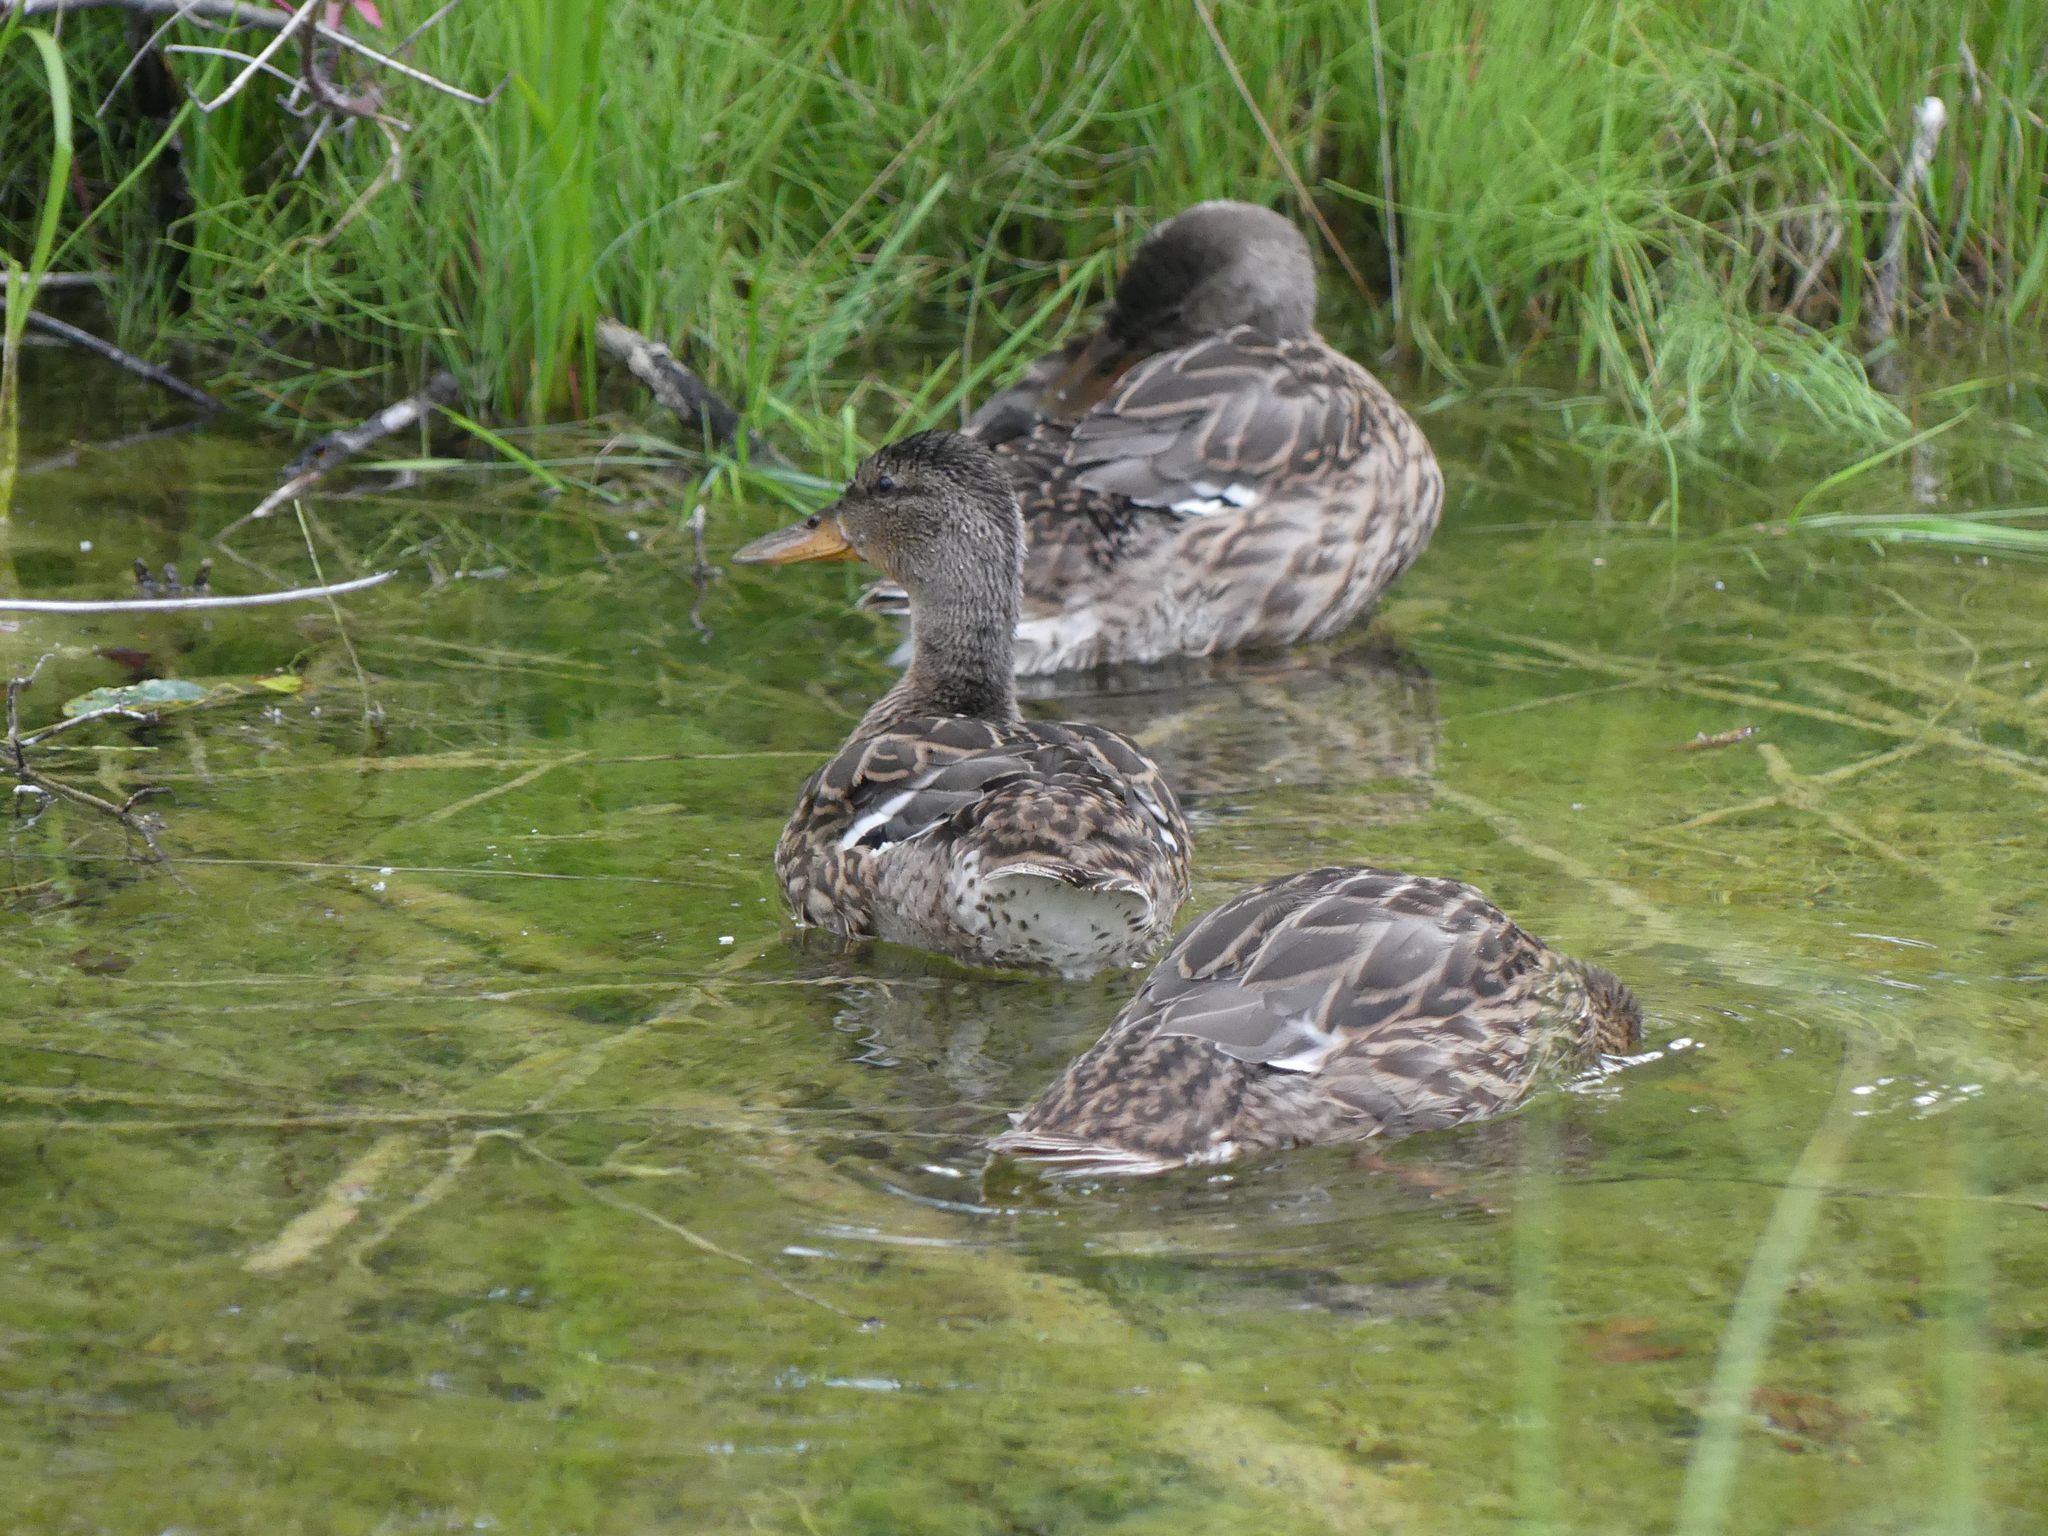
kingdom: Animalia
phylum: Chordata
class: Aves
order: Anseriformes
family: Anatidae
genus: Anas
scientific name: Anas platyrhynchos
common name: Mallard
